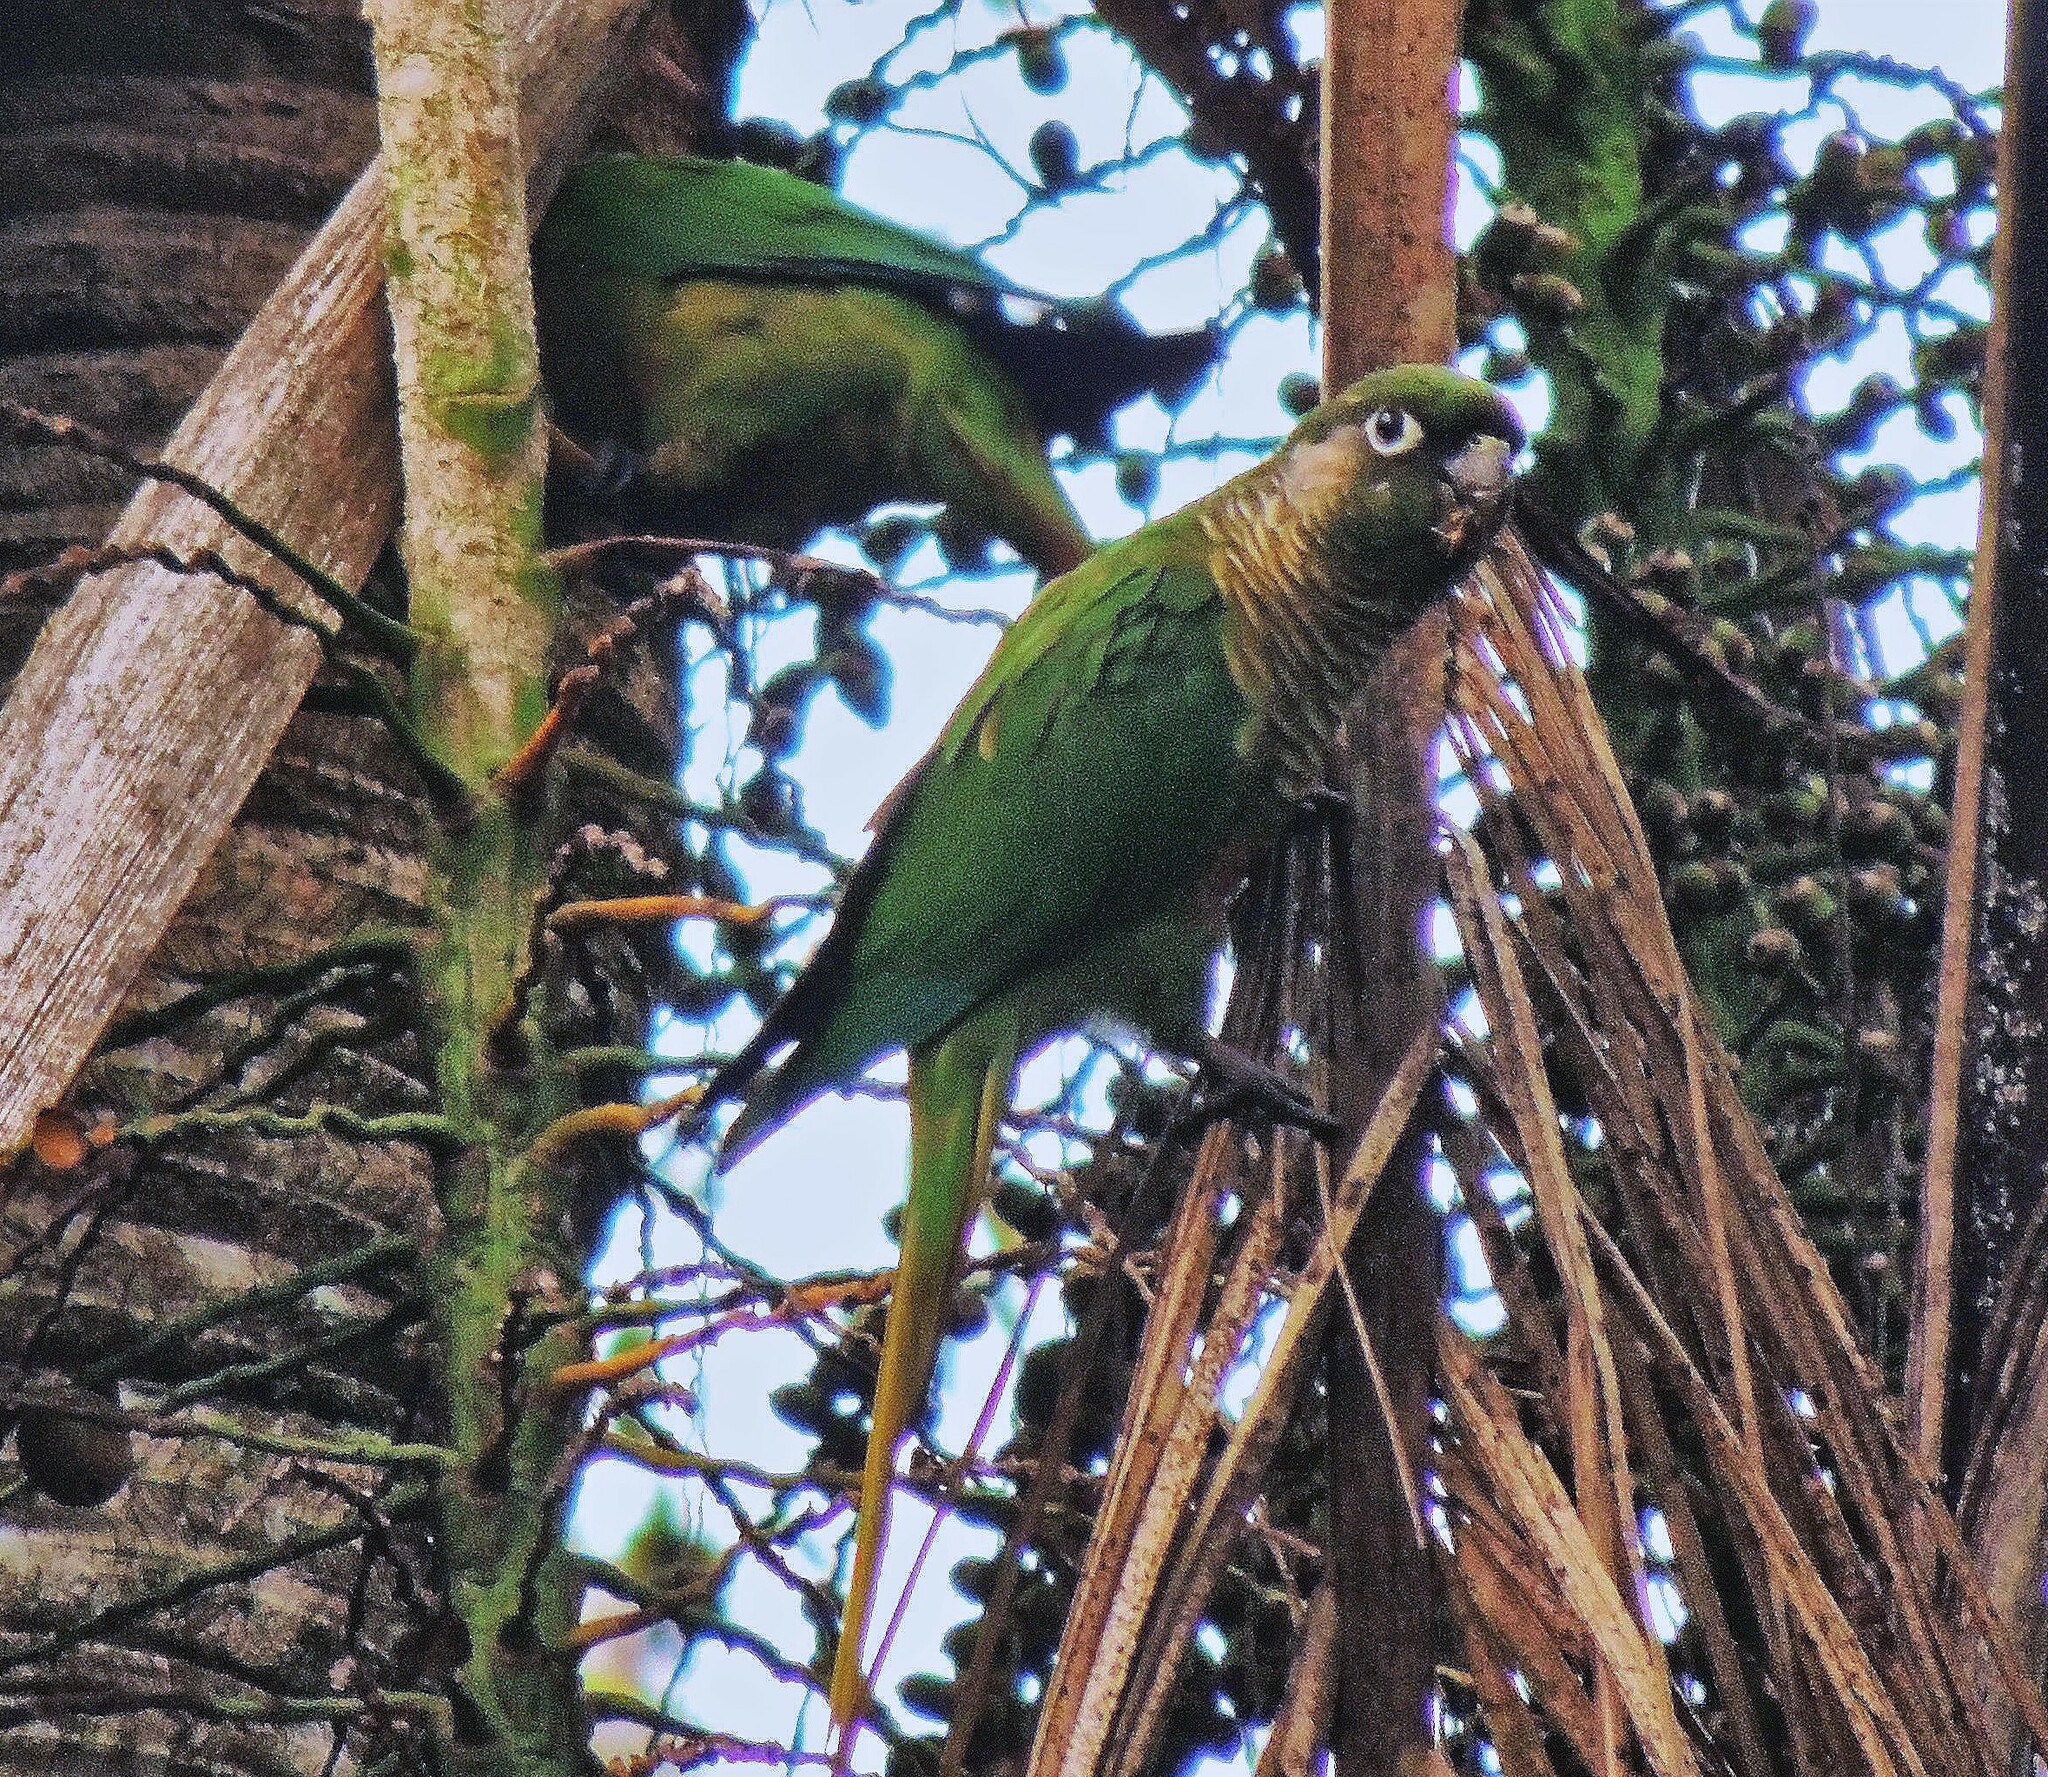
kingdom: Animalia
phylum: Chordata
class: Aves
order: Psittaciformes
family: Psittacidae
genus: Pyrrhura
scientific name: Pyrrhura frontalis
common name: Maroon-bellied parakeet
